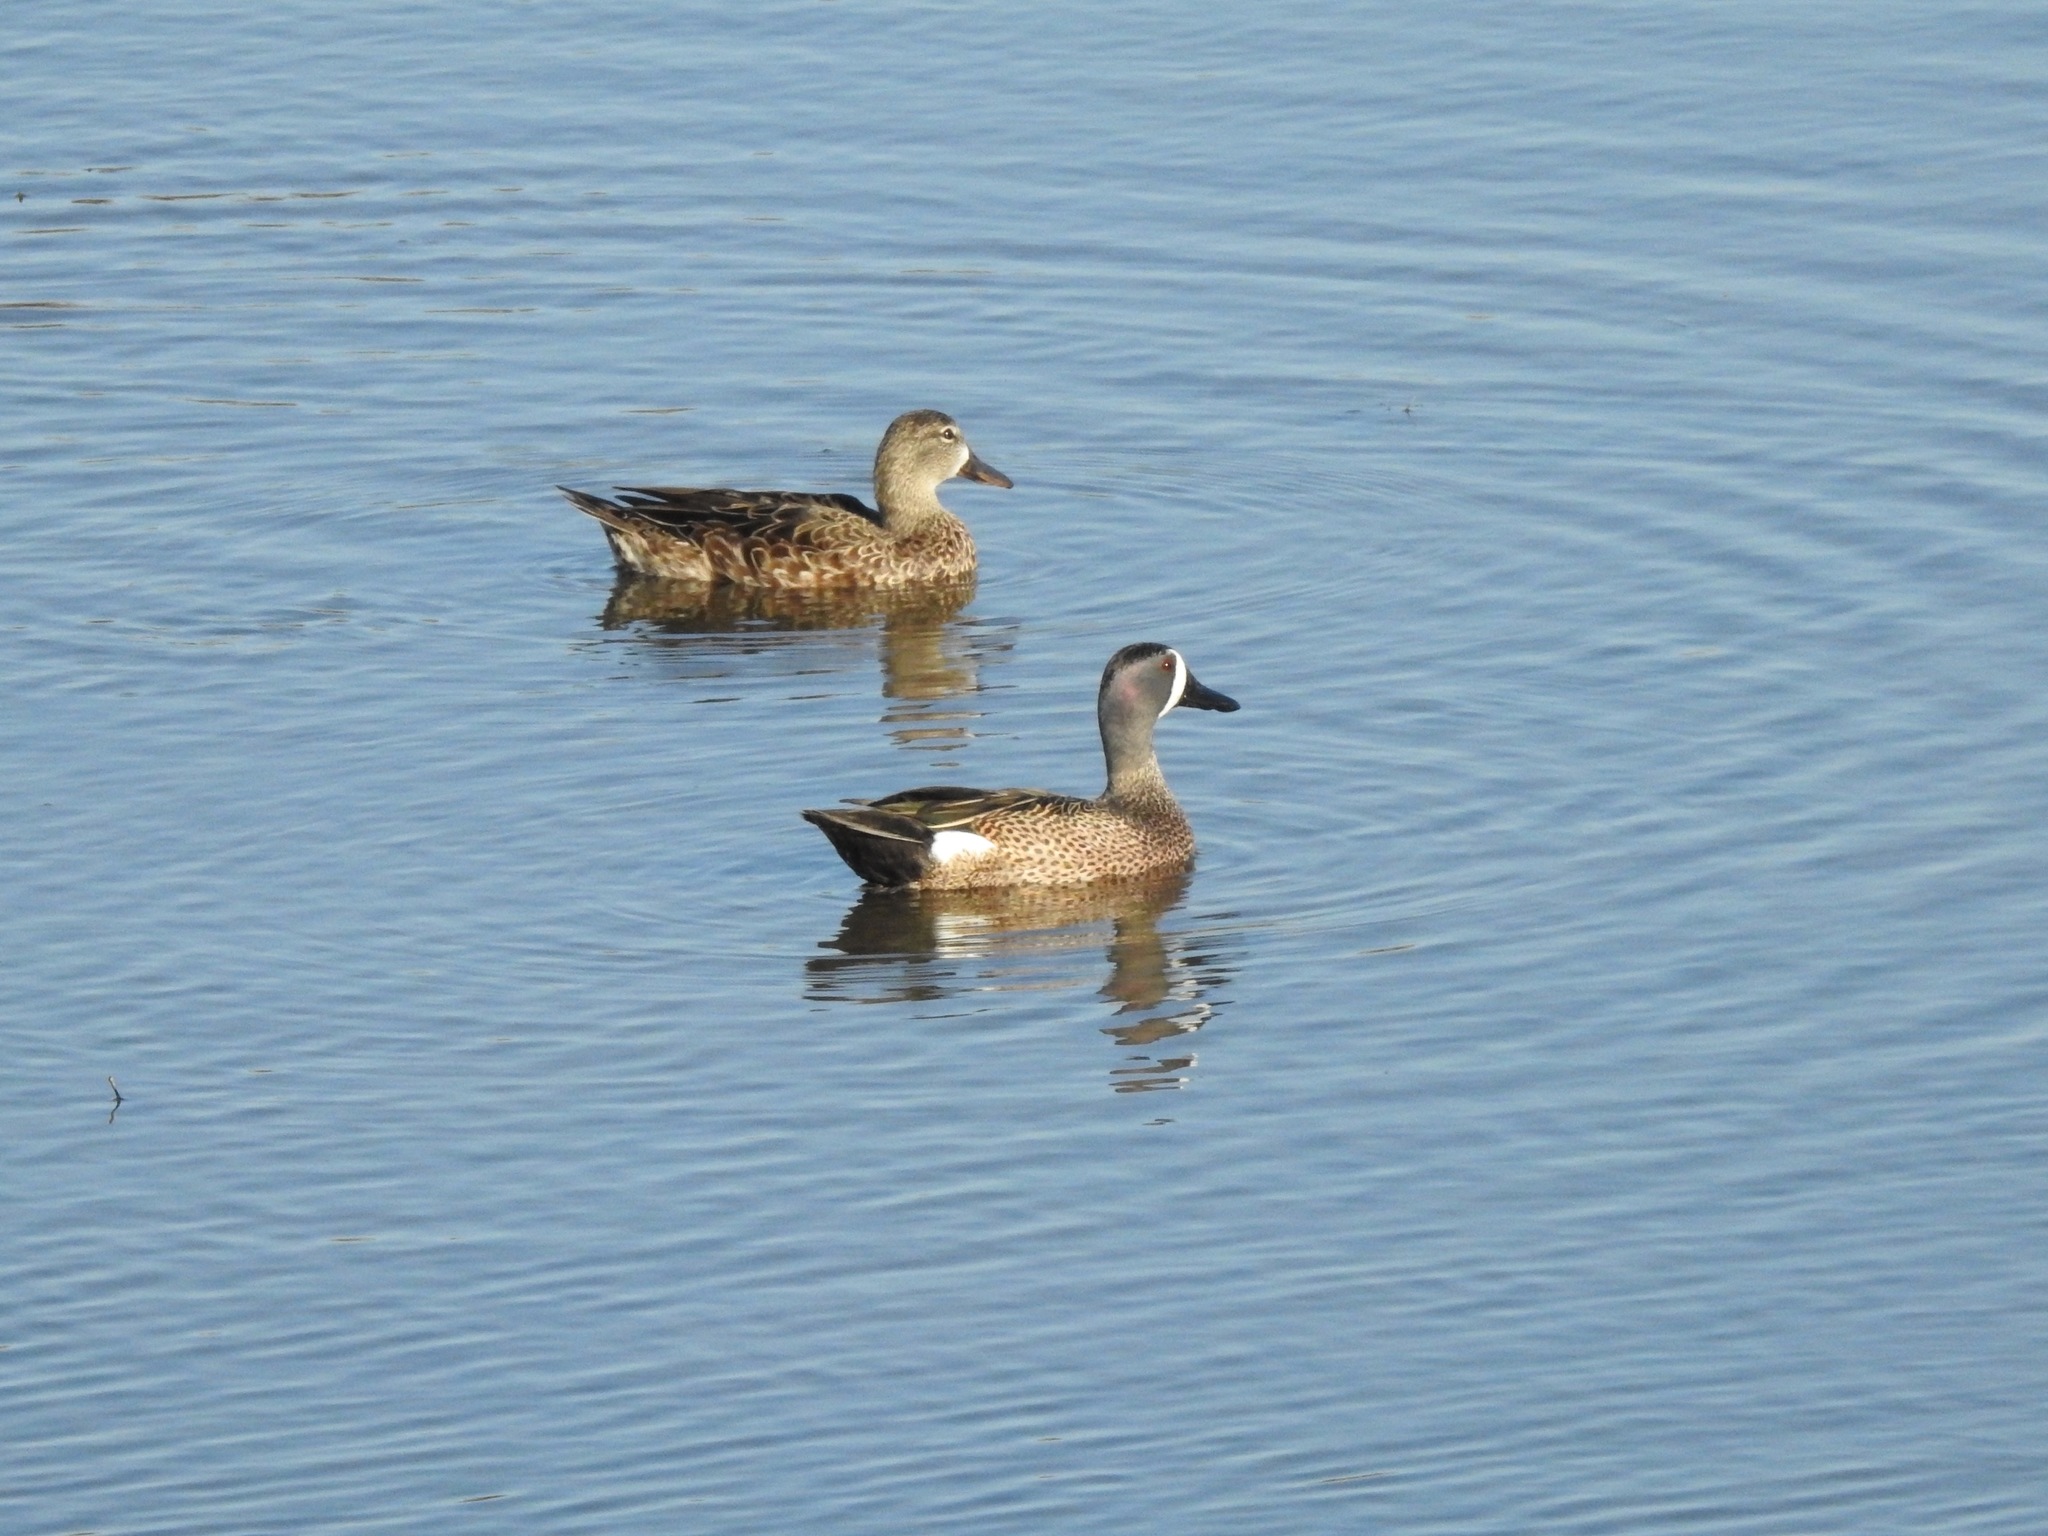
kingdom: Animalia
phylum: Chordata
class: Aves
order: Anseriformes
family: Anatidae
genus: Spatula
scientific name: Spatula discors
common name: Blue-winged teal
